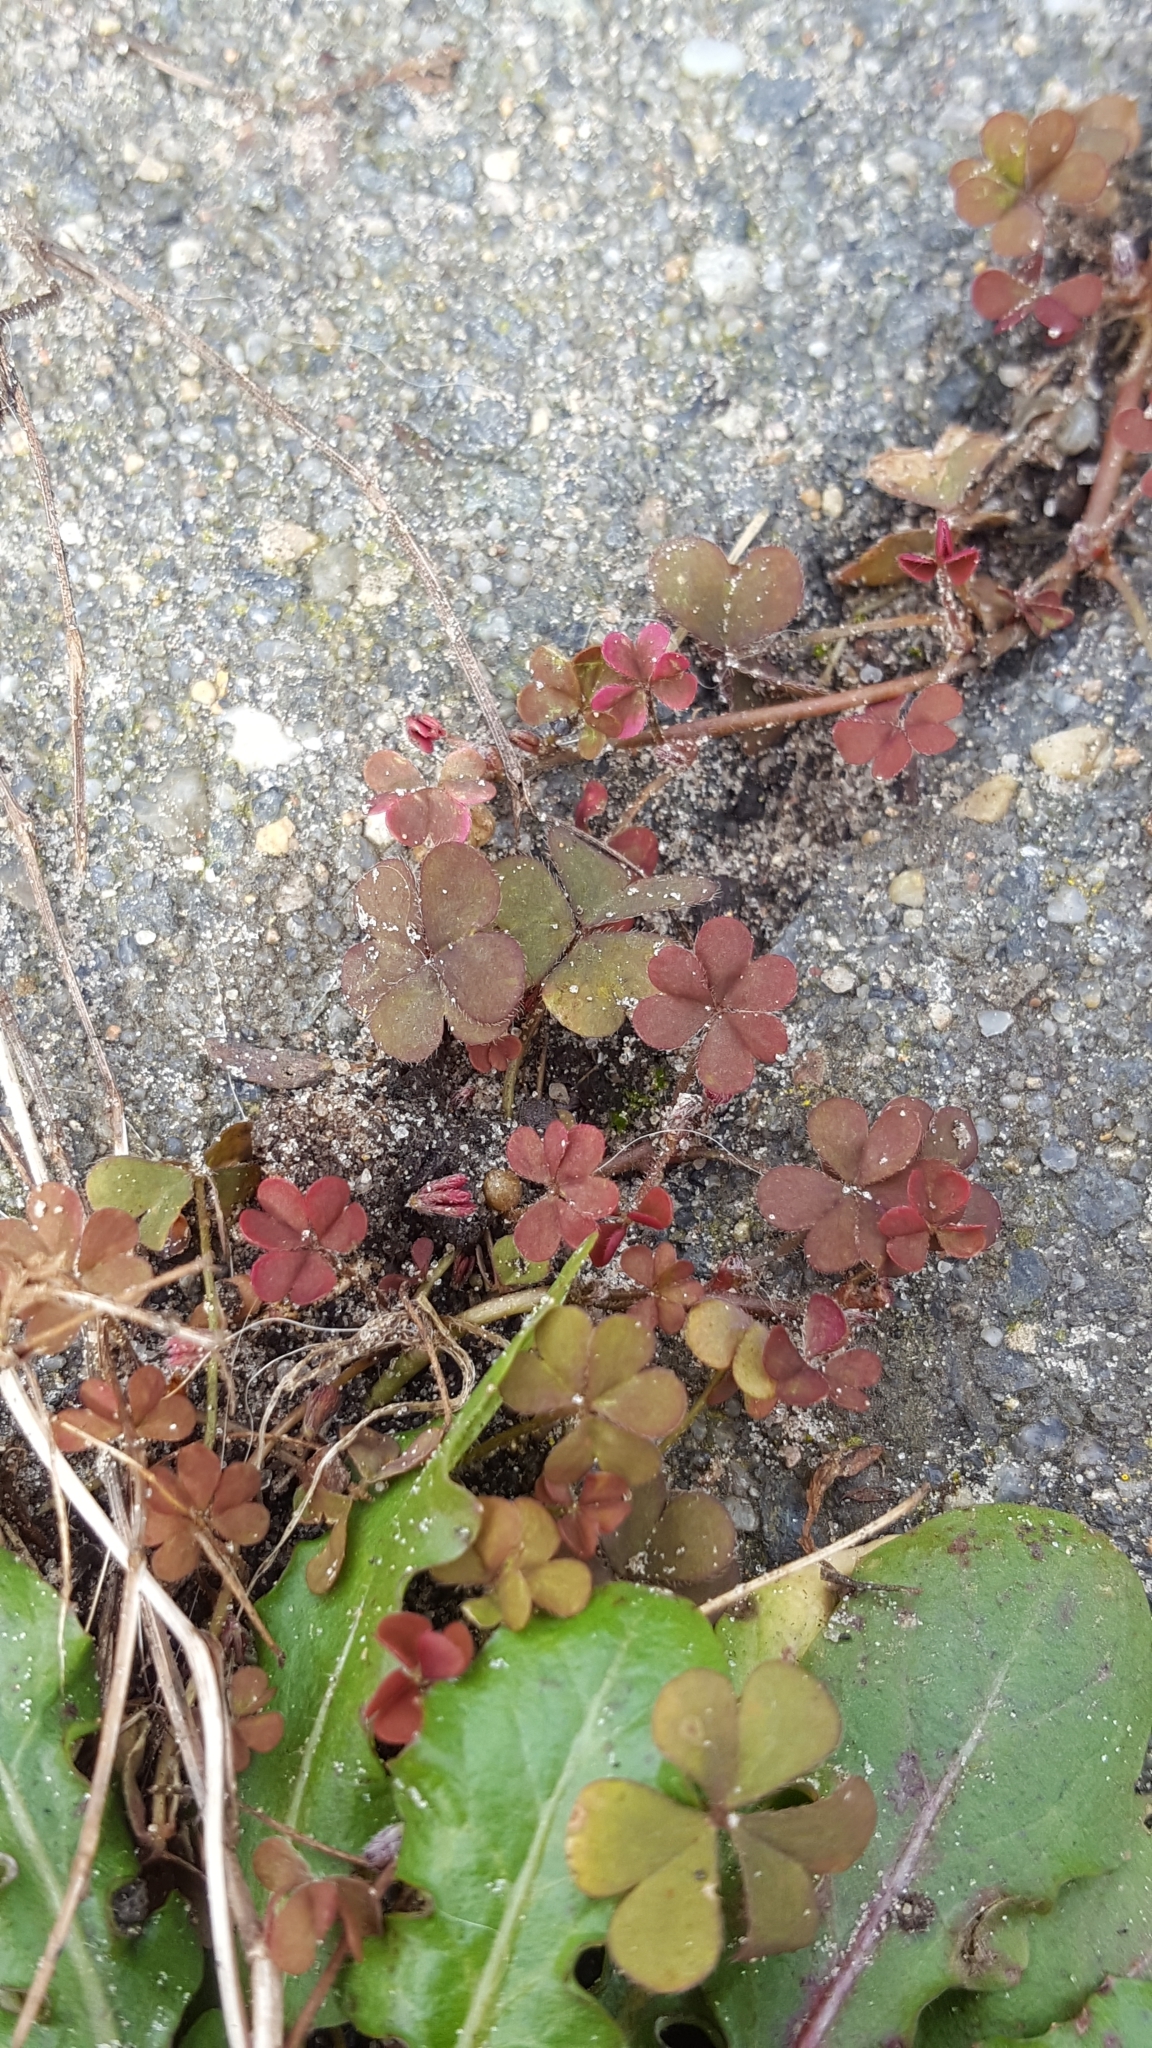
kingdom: Plantae
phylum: Tracheophyta
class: Magnoliopsida
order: Oxalidales
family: Oxalidaceae
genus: Oxalis
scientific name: Oxalis corniculata
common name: Procumbent yellow-sorrel
